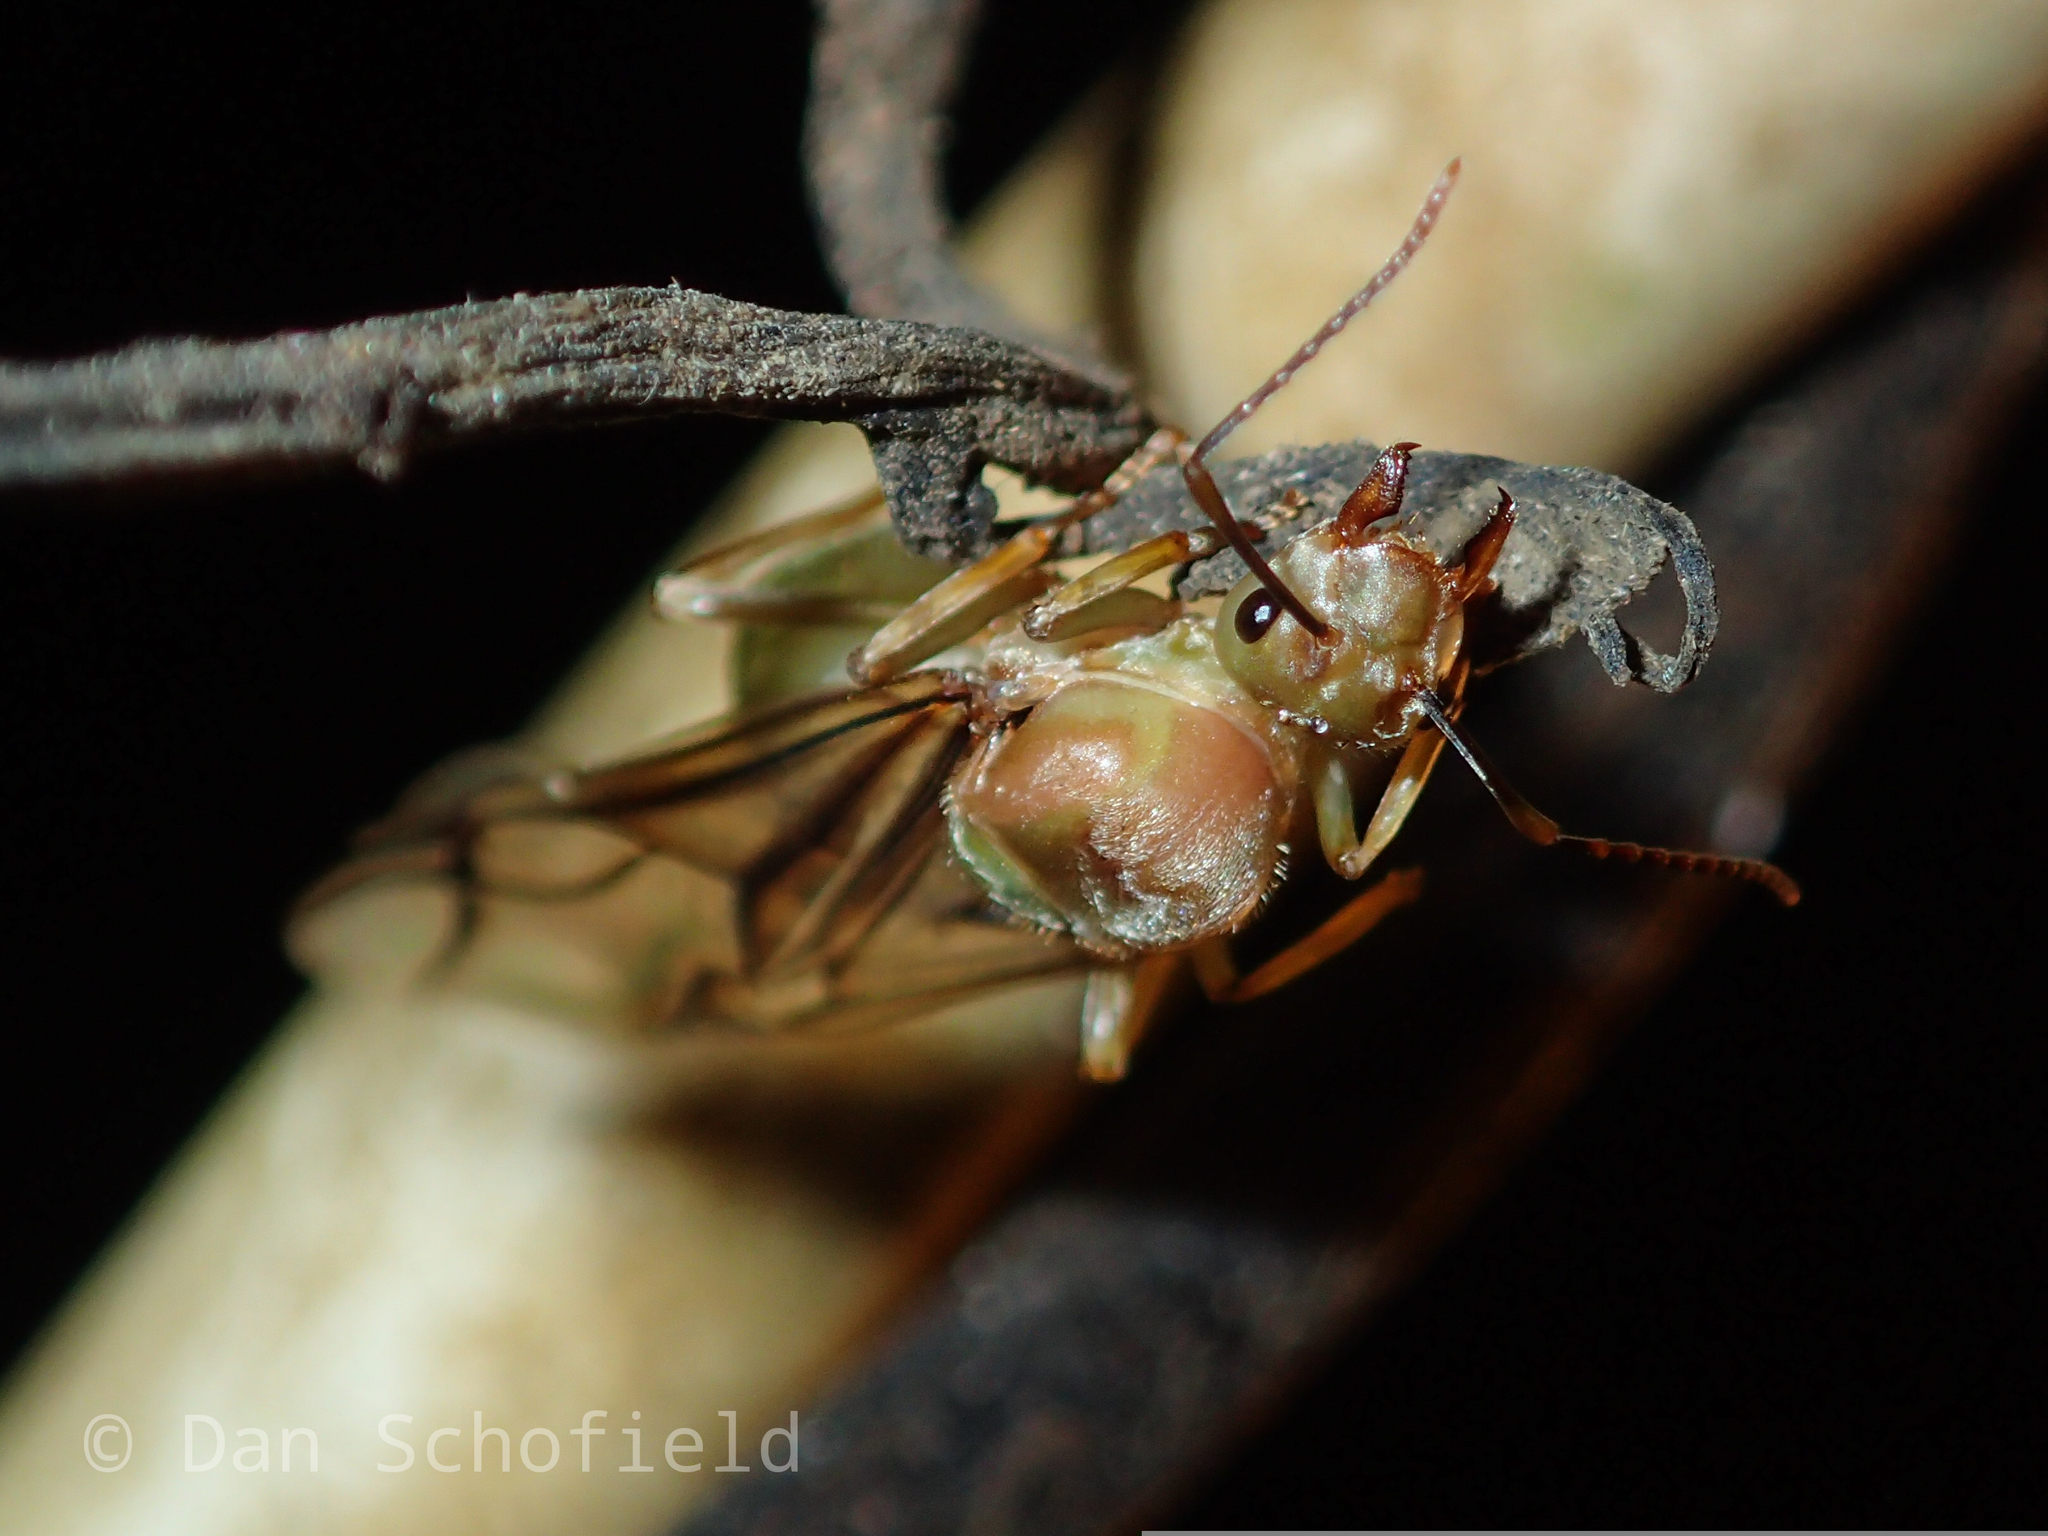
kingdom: Animalia
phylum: Arthropoda
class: Insecta
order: Hymenoptera
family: Formicidae
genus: Oecophylla
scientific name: Oecophylla smaragdina
